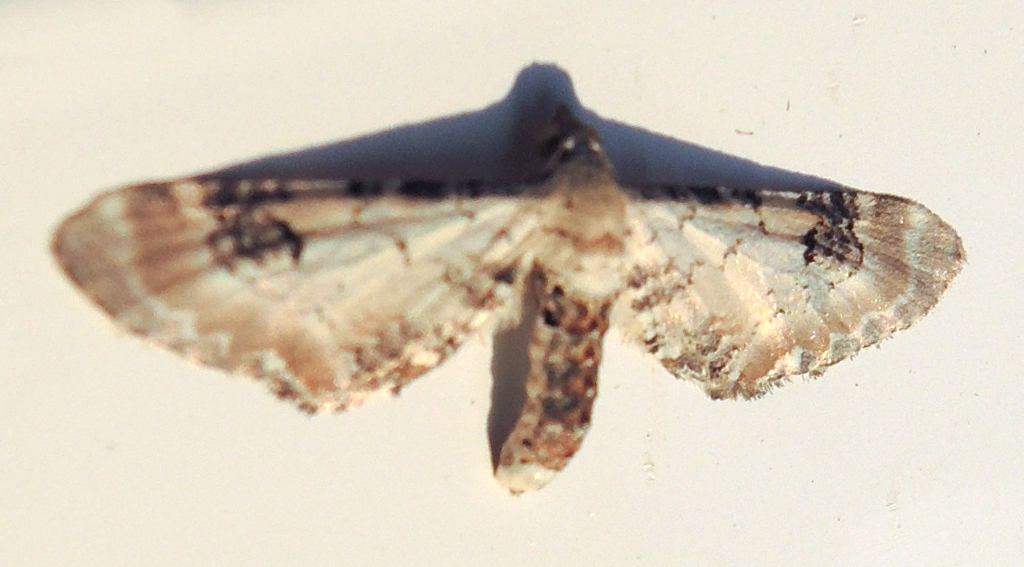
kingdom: Animalia
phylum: Arthropoda
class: Insecta
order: Lepidoptera
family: Geometridae
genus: Eupithecia
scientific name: Eupithecia centaureata
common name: Lime-speck pug
